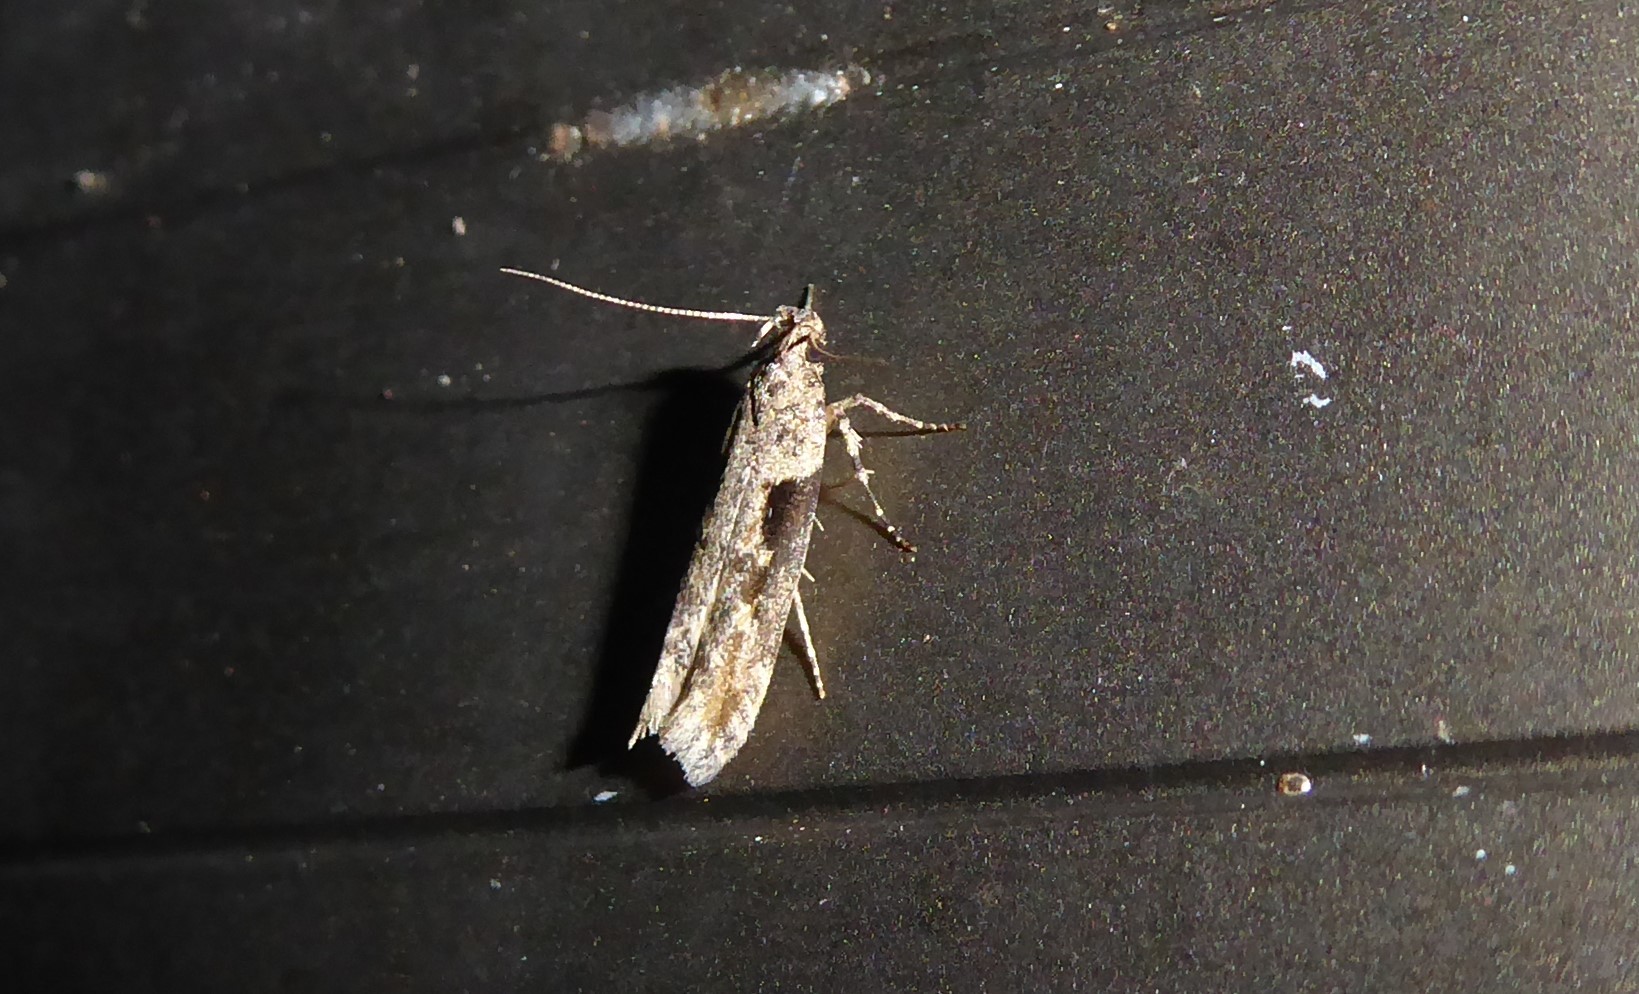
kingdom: Animalia
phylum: Arthropoda
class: Insecta
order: Lepidoptera
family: Gelechiidae
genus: Symmetrischema
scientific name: Symmetrischema tangolias
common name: Moth
